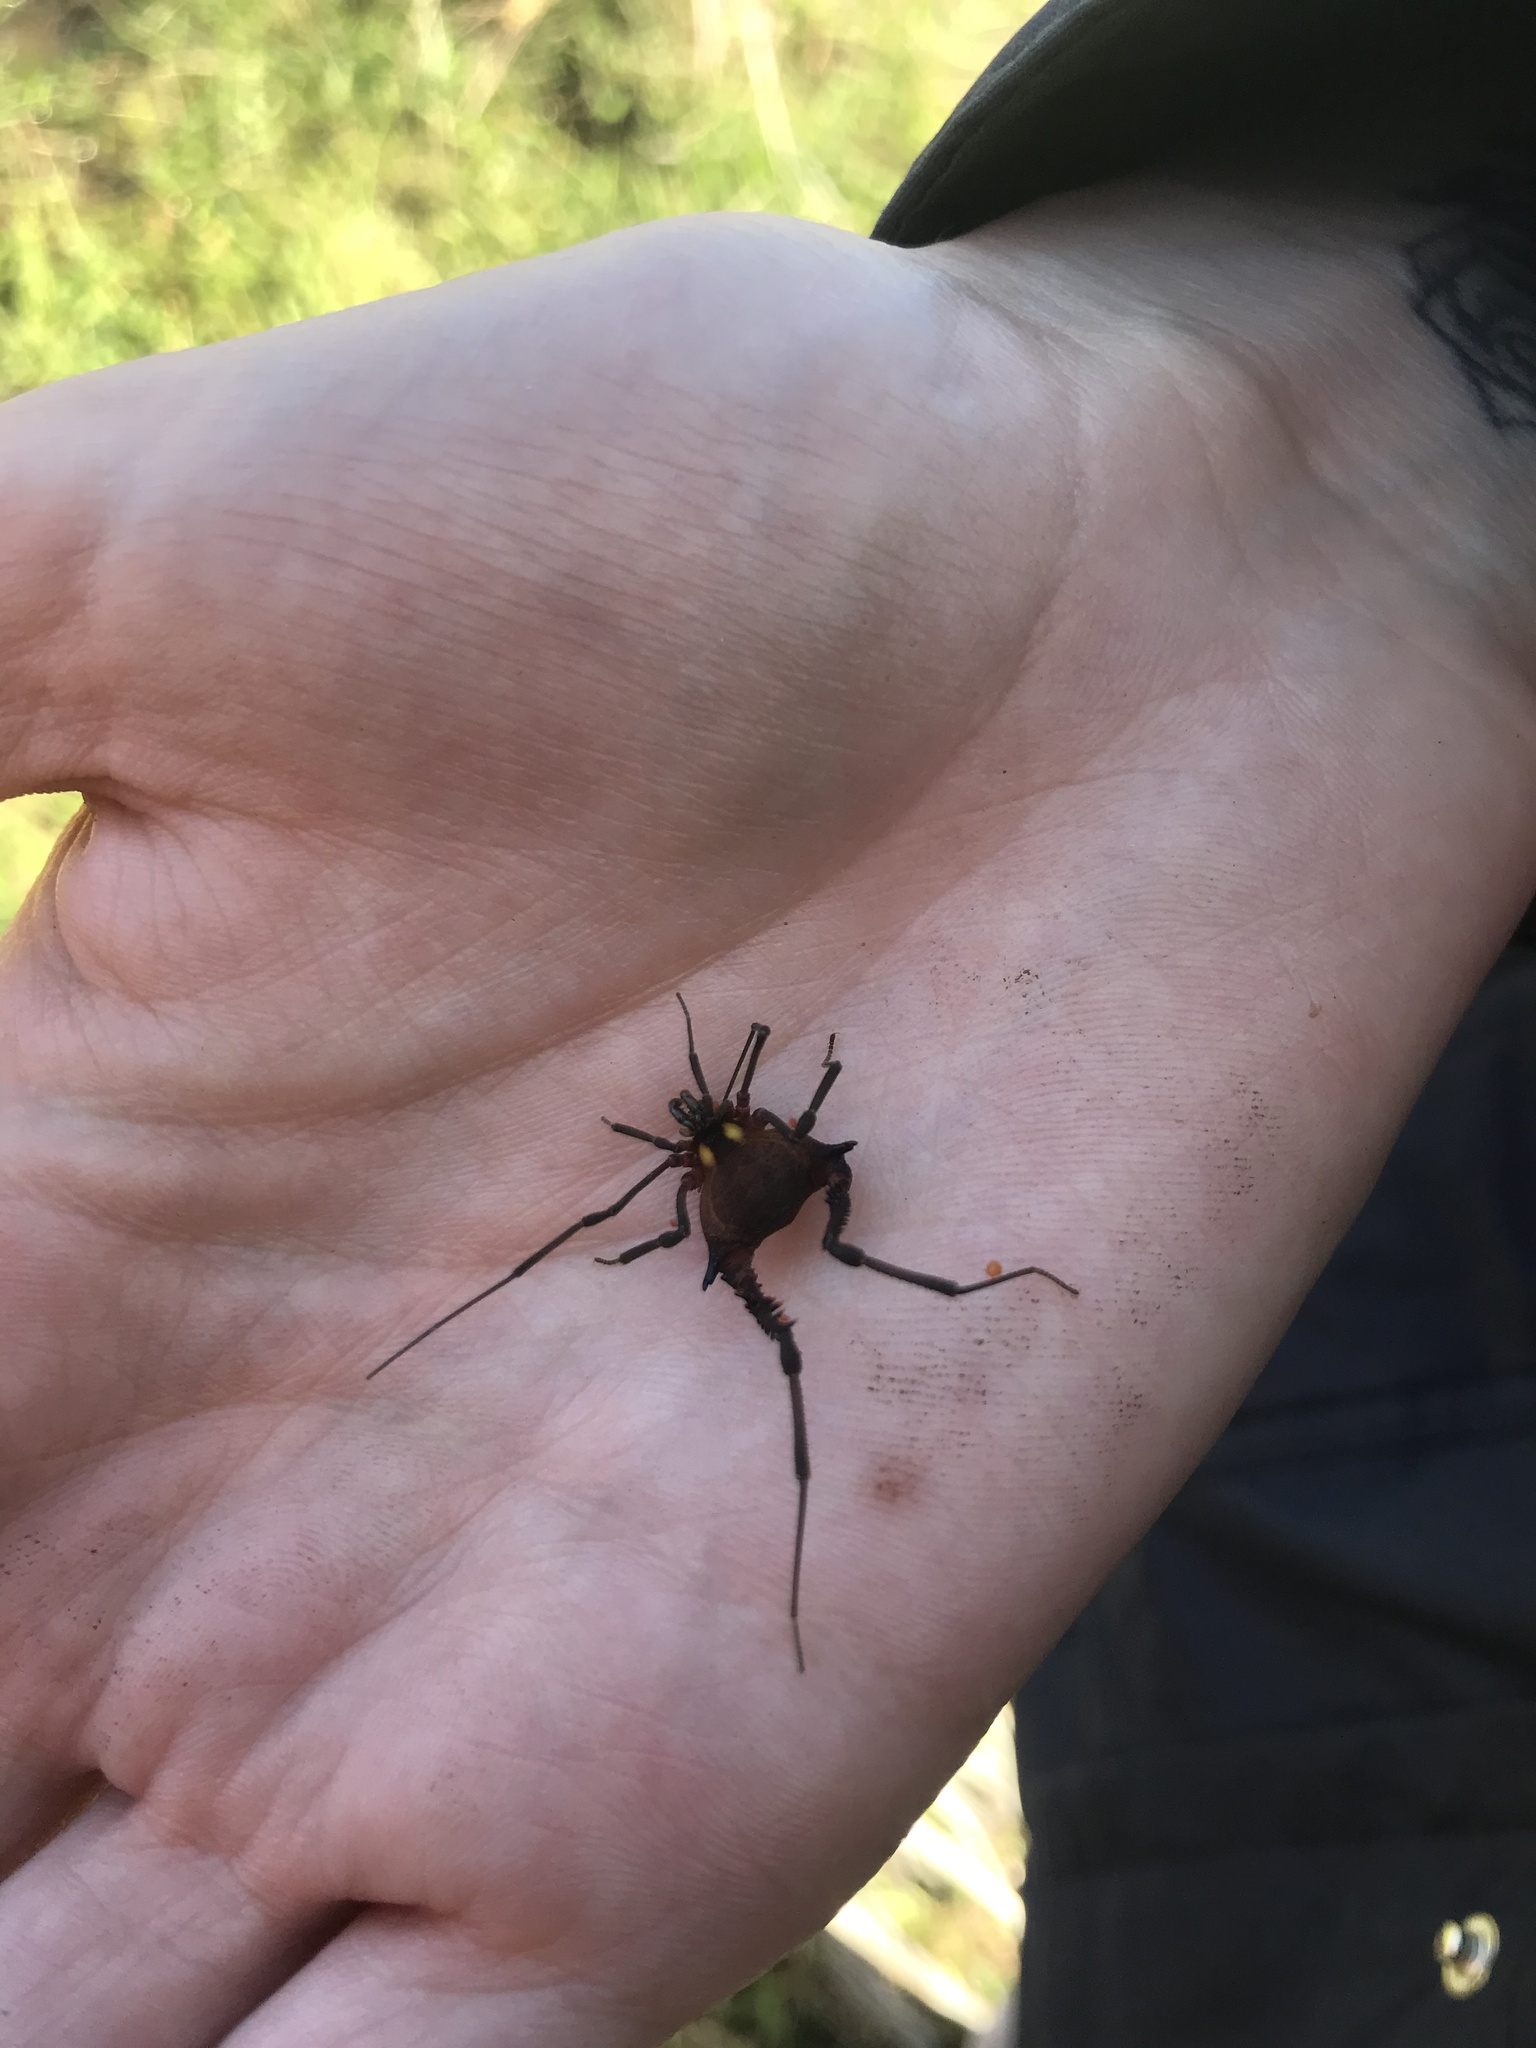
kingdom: Animalia
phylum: Arthropoda
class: Arachnida
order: Opiliones
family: Gonyleptidae
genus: Parampheres
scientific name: Parampheres bimaculatus
